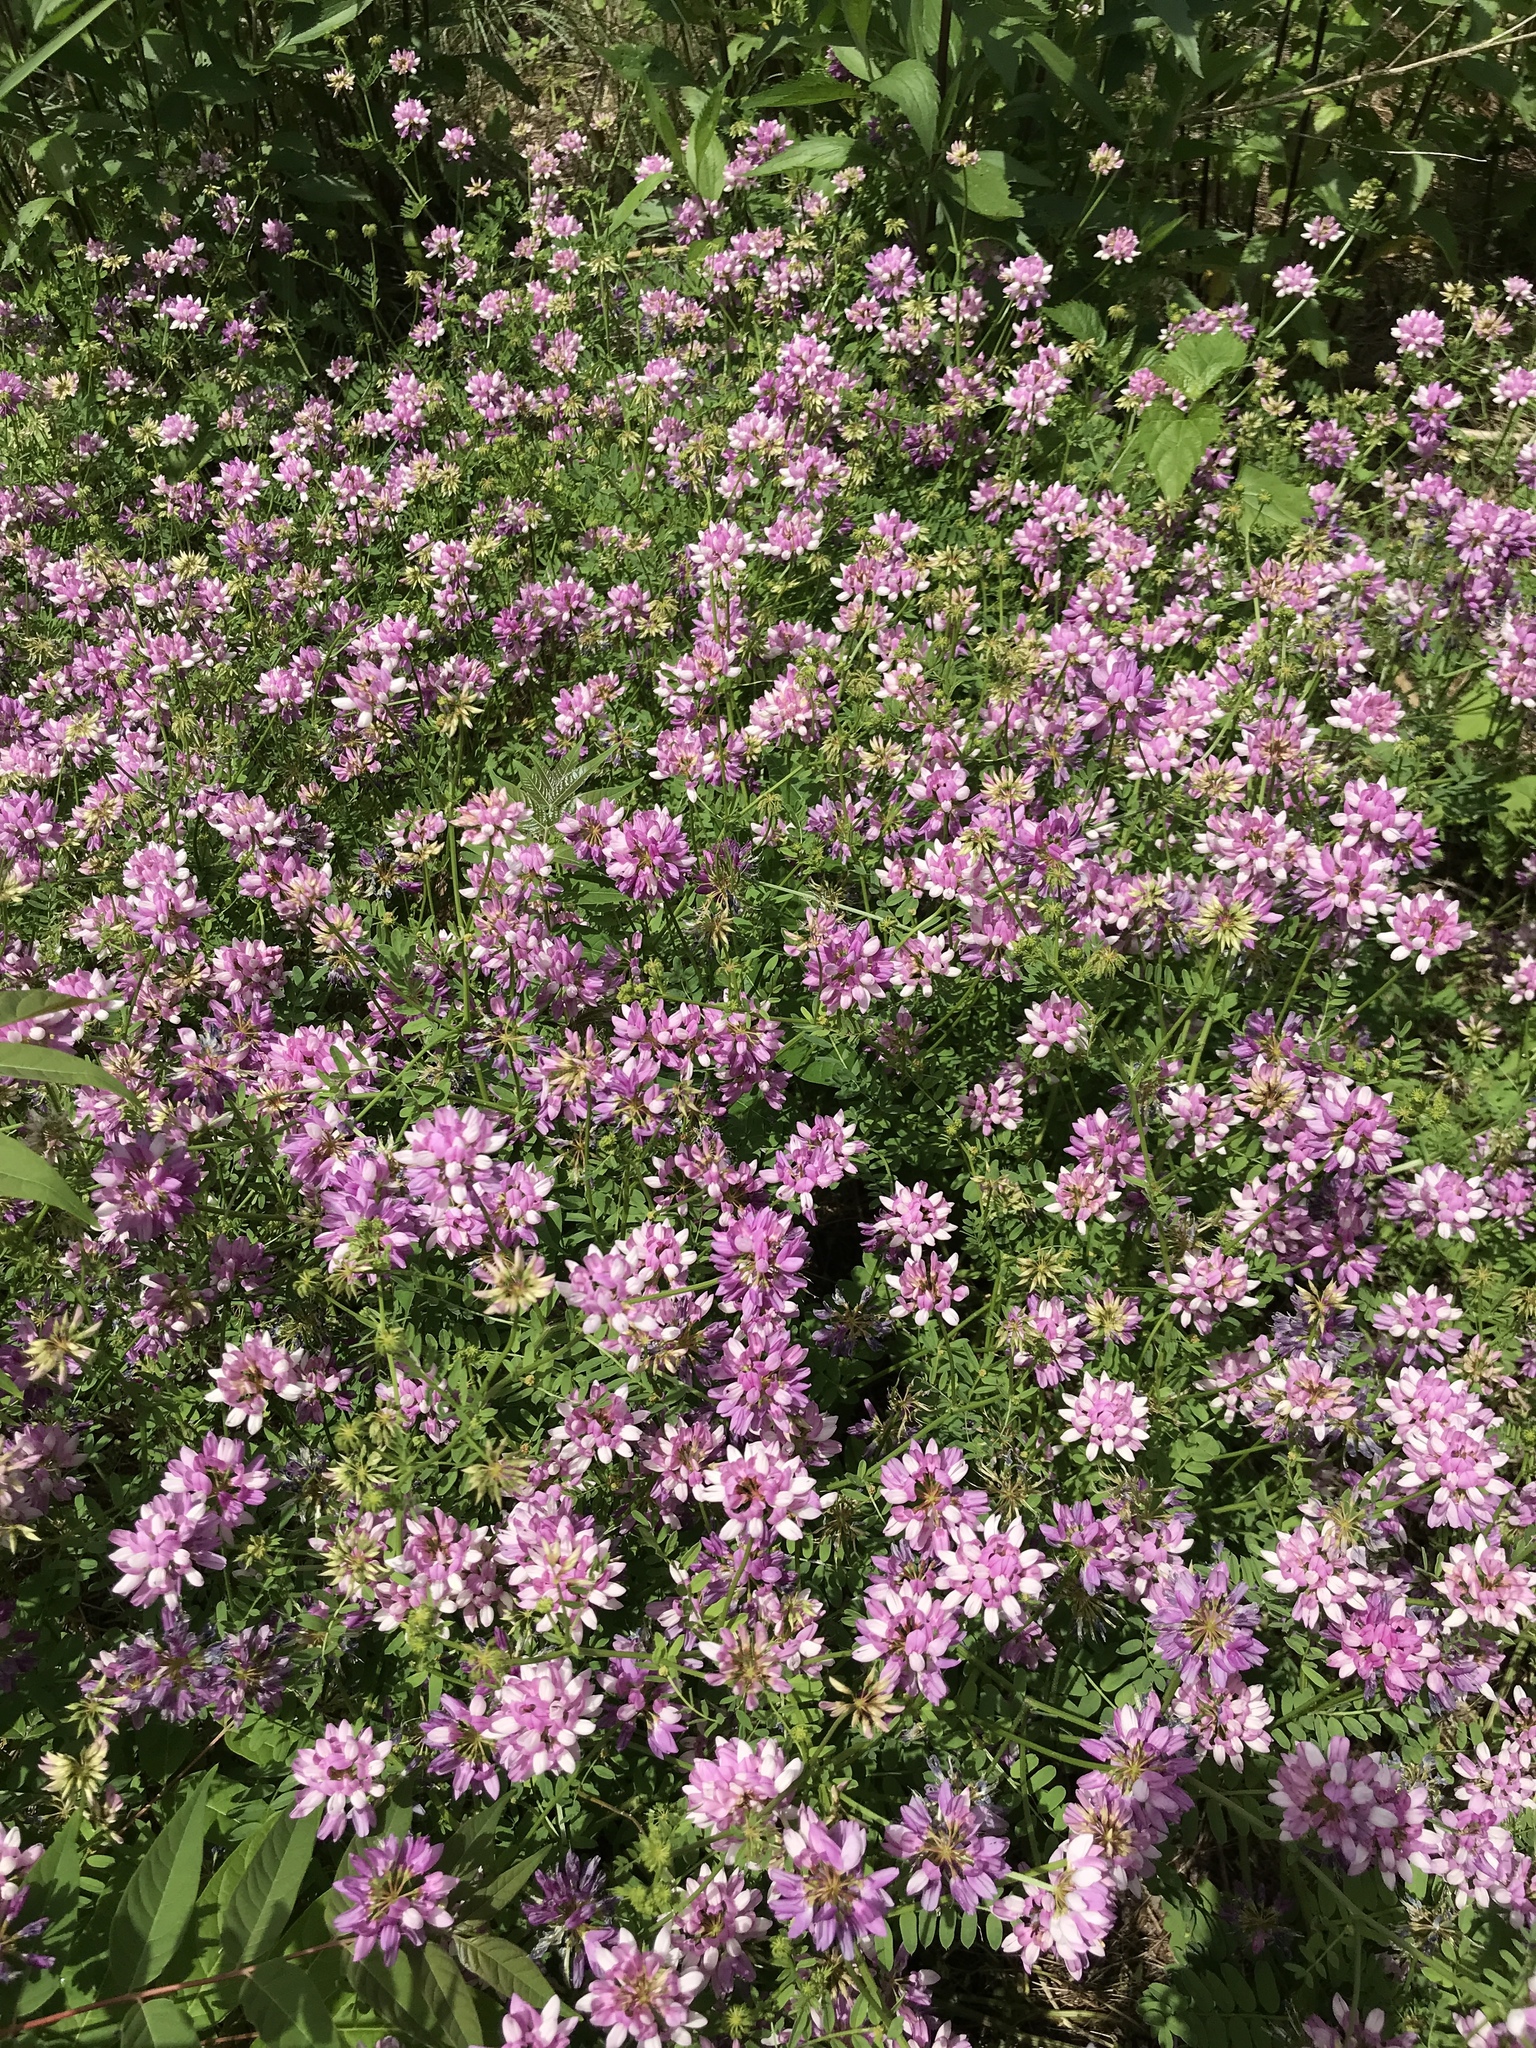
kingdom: Plantae
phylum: Tracheophyta
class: Magnoliopsida
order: Fabales
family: Fabaceae
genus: Coronilla
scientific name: Coronilla varia
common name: Crownvetch
